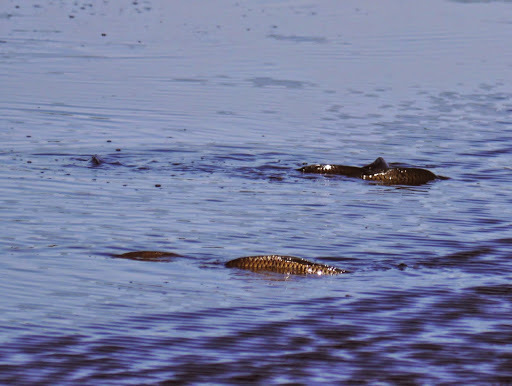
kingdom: Animalia
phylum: Chordata
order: Cypriniformes
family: Cyprinidae
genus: Cyprinus
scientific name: Cyprinus carpio
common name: Common carp
